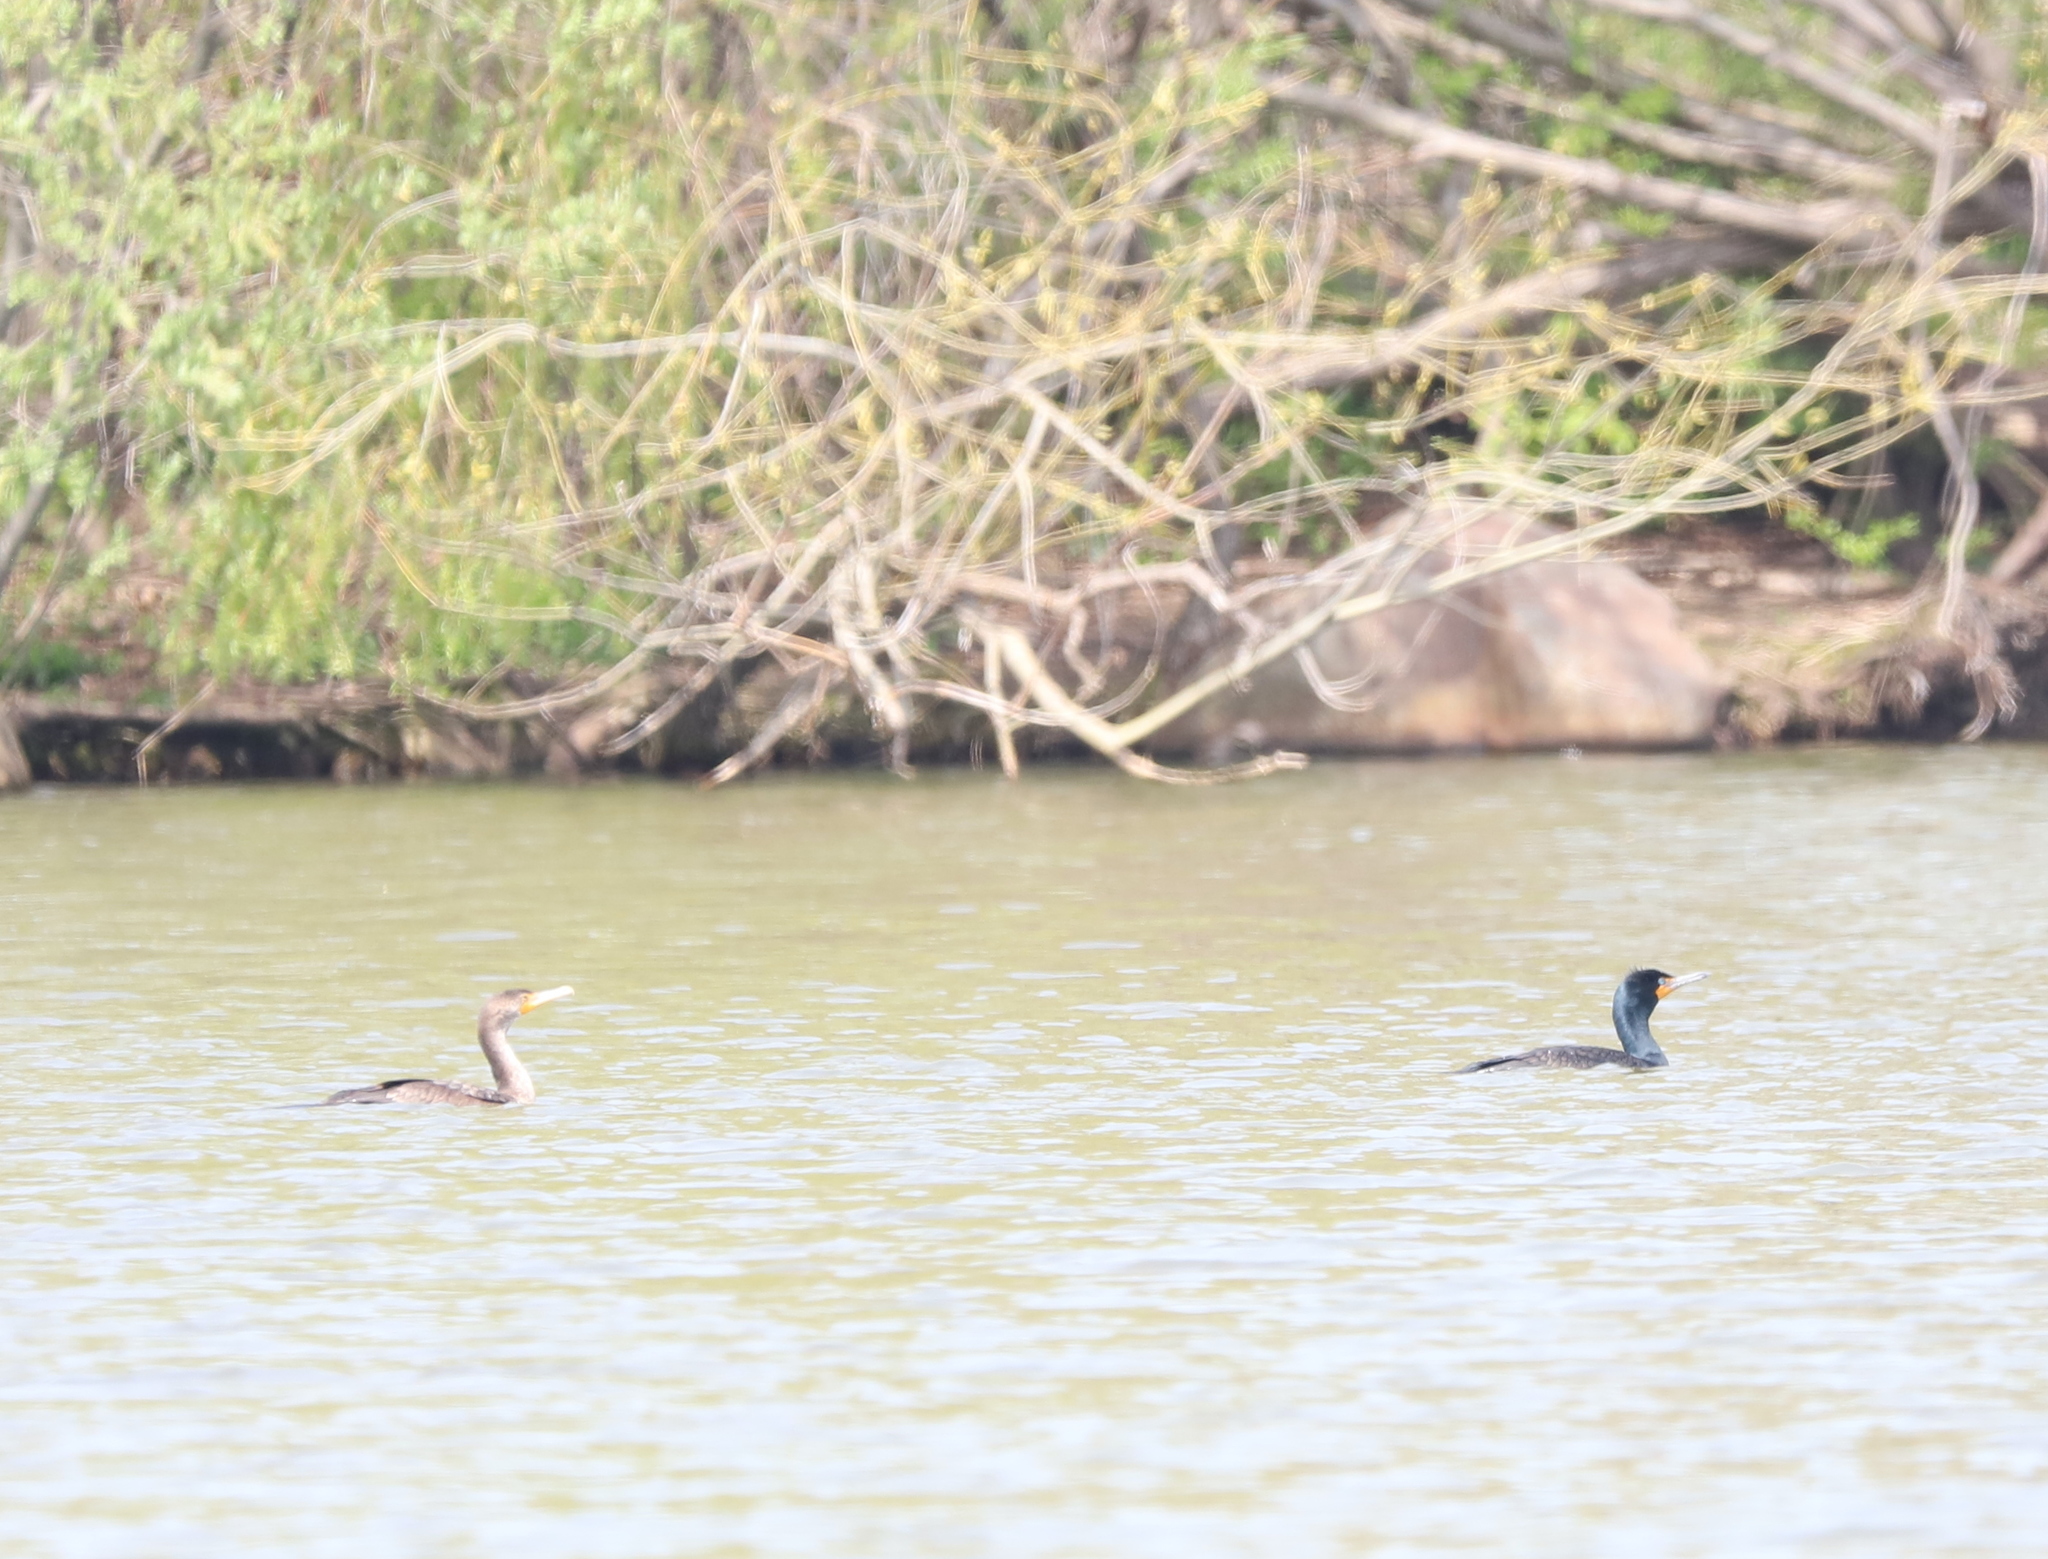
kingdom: Animalia
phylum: Chordata
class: Aves
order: Suliformes
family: Phalacrocoracidae
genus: Phalacrocorax
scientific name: Phalacrocorax auritus
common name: Double-crested cormorant
